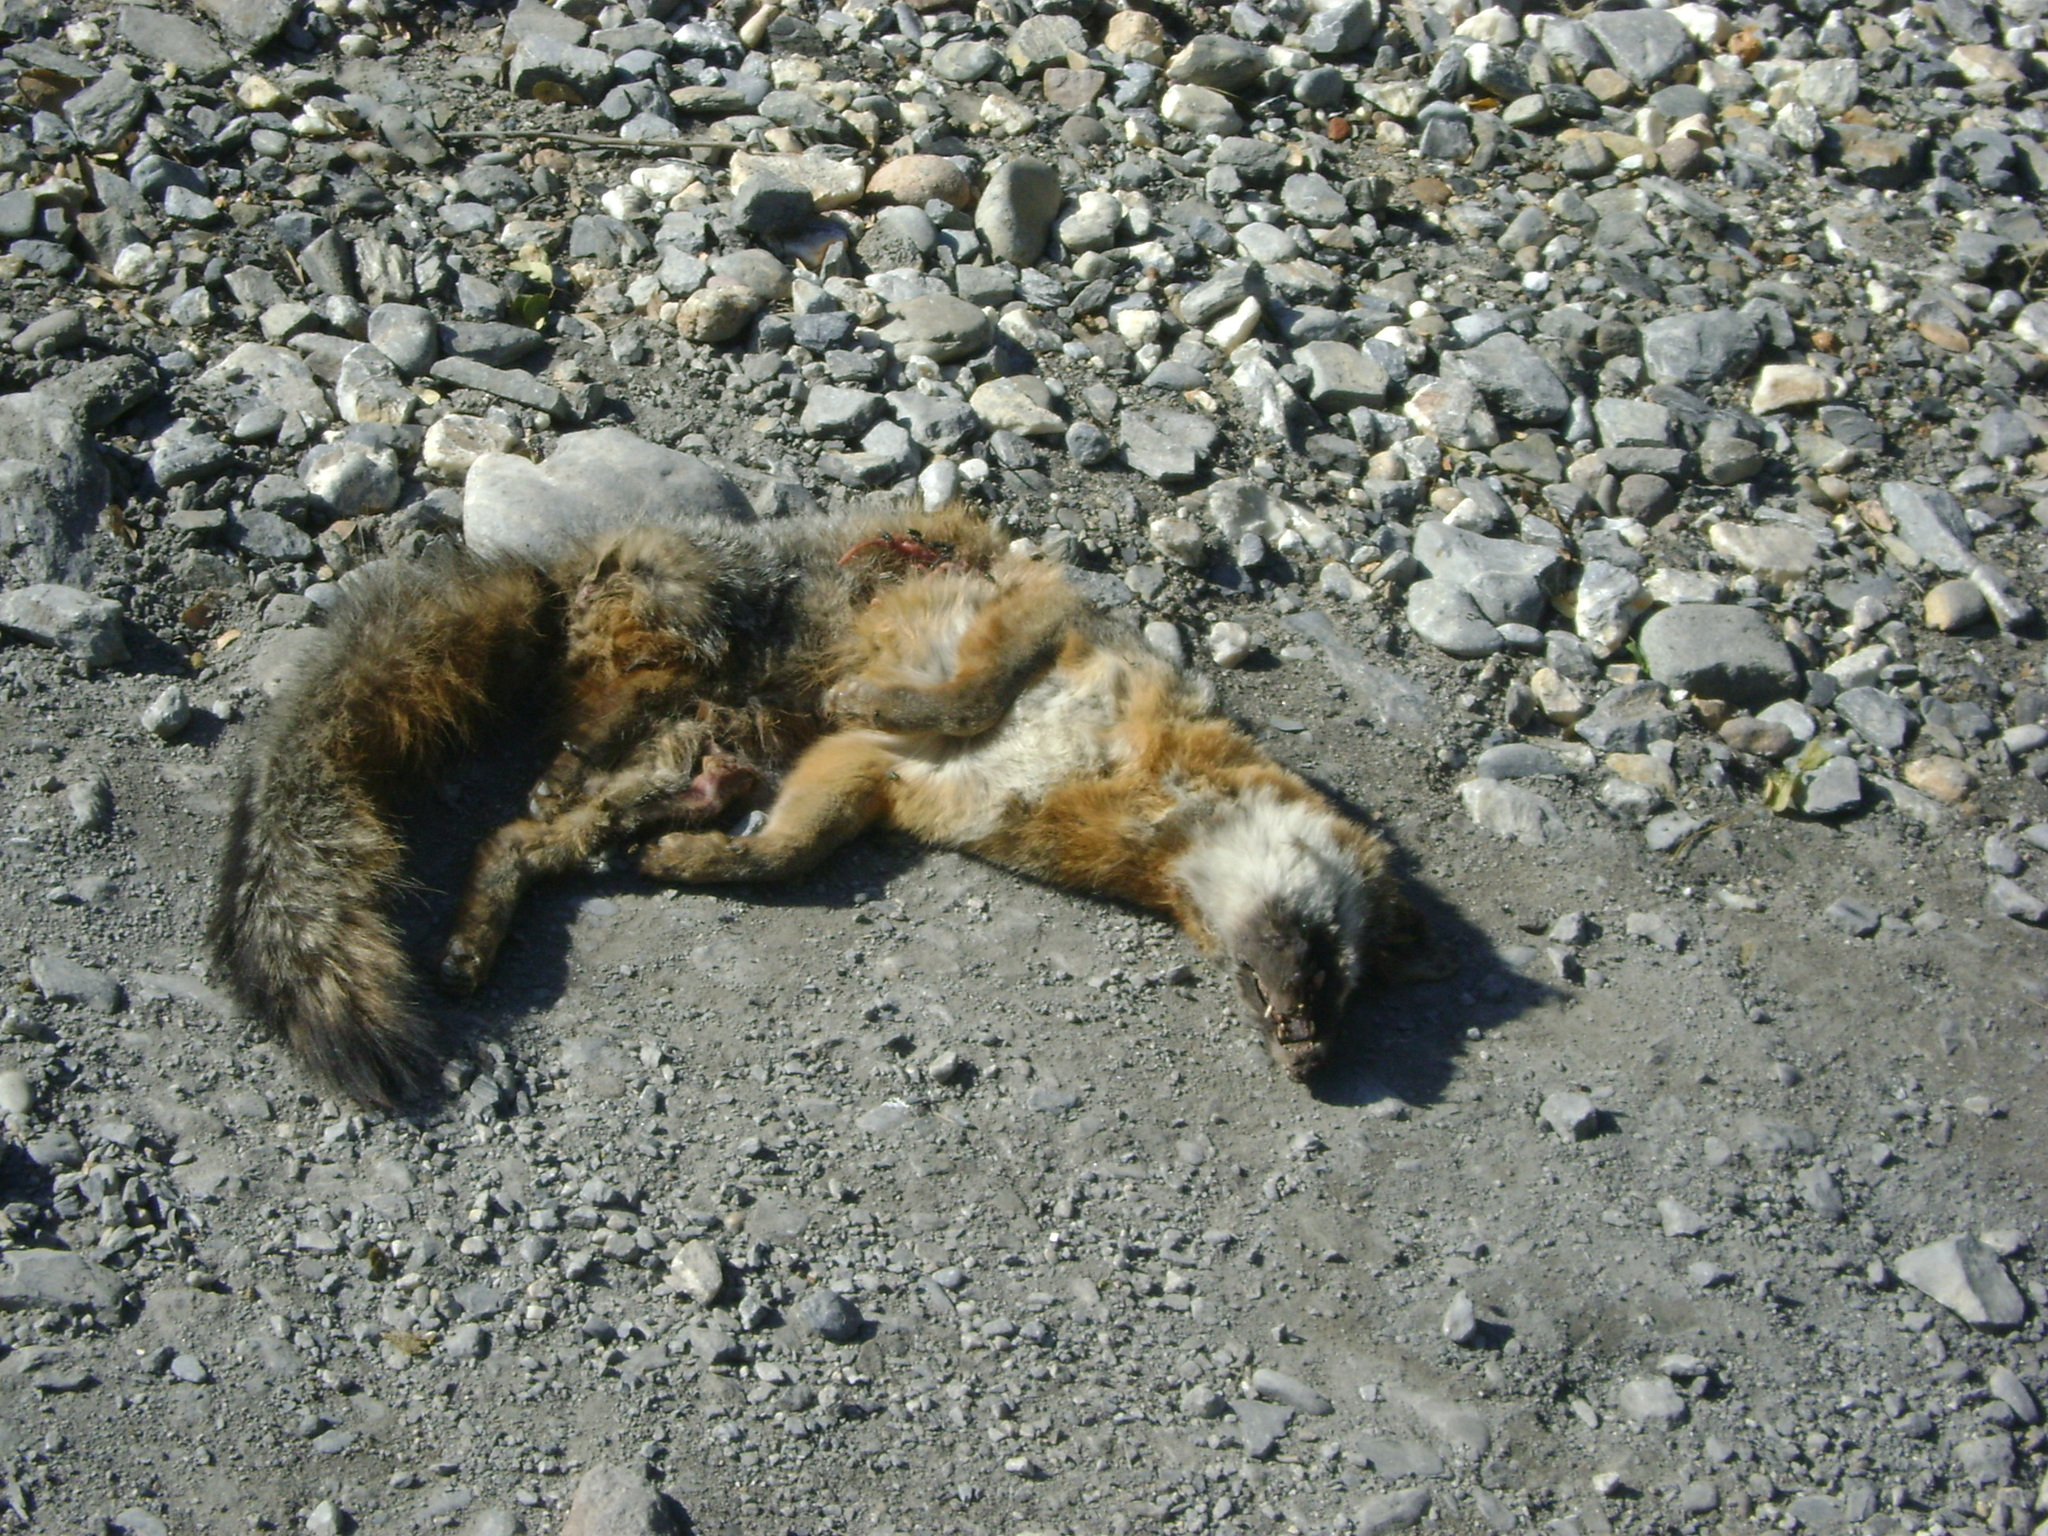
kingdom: Animalia
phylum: Chordata
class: Mammalia
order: Carnivora
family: Canidae
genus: Urocyon
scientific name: Urocyon cinereoargenteus
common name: Gray fox
